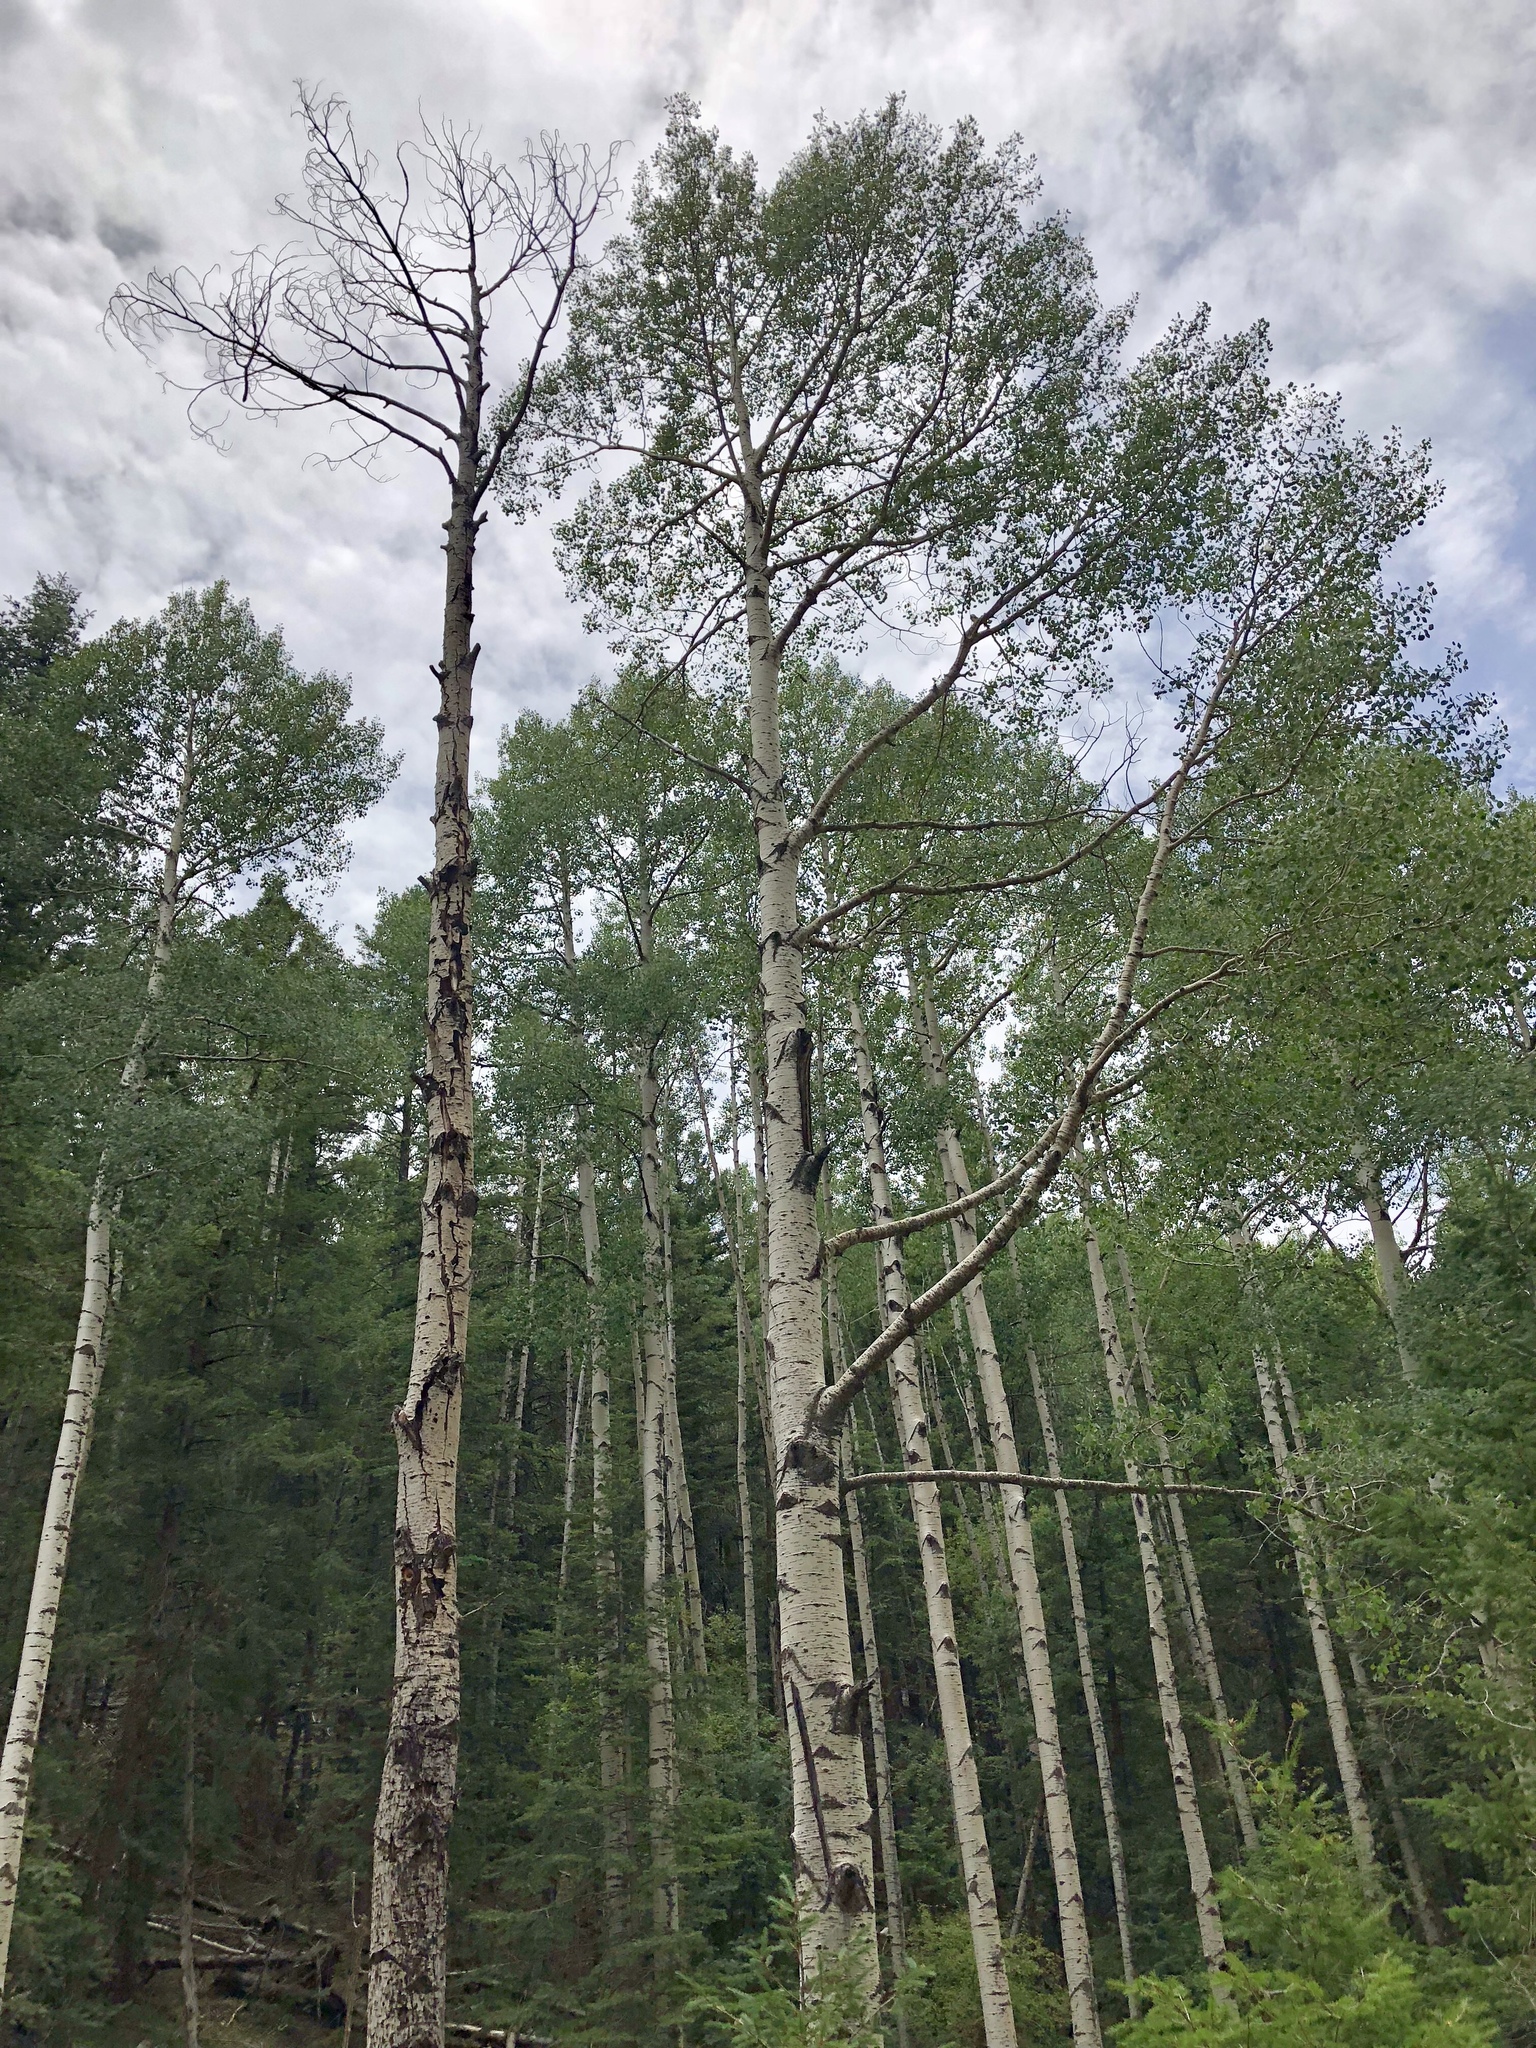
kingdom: Plantae
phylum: Tracheophyta
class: Magnoliopsida
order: Malpighiales
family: Salicaceae
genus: Populus
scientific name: Populus tremuloides
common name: Quaking aspen
